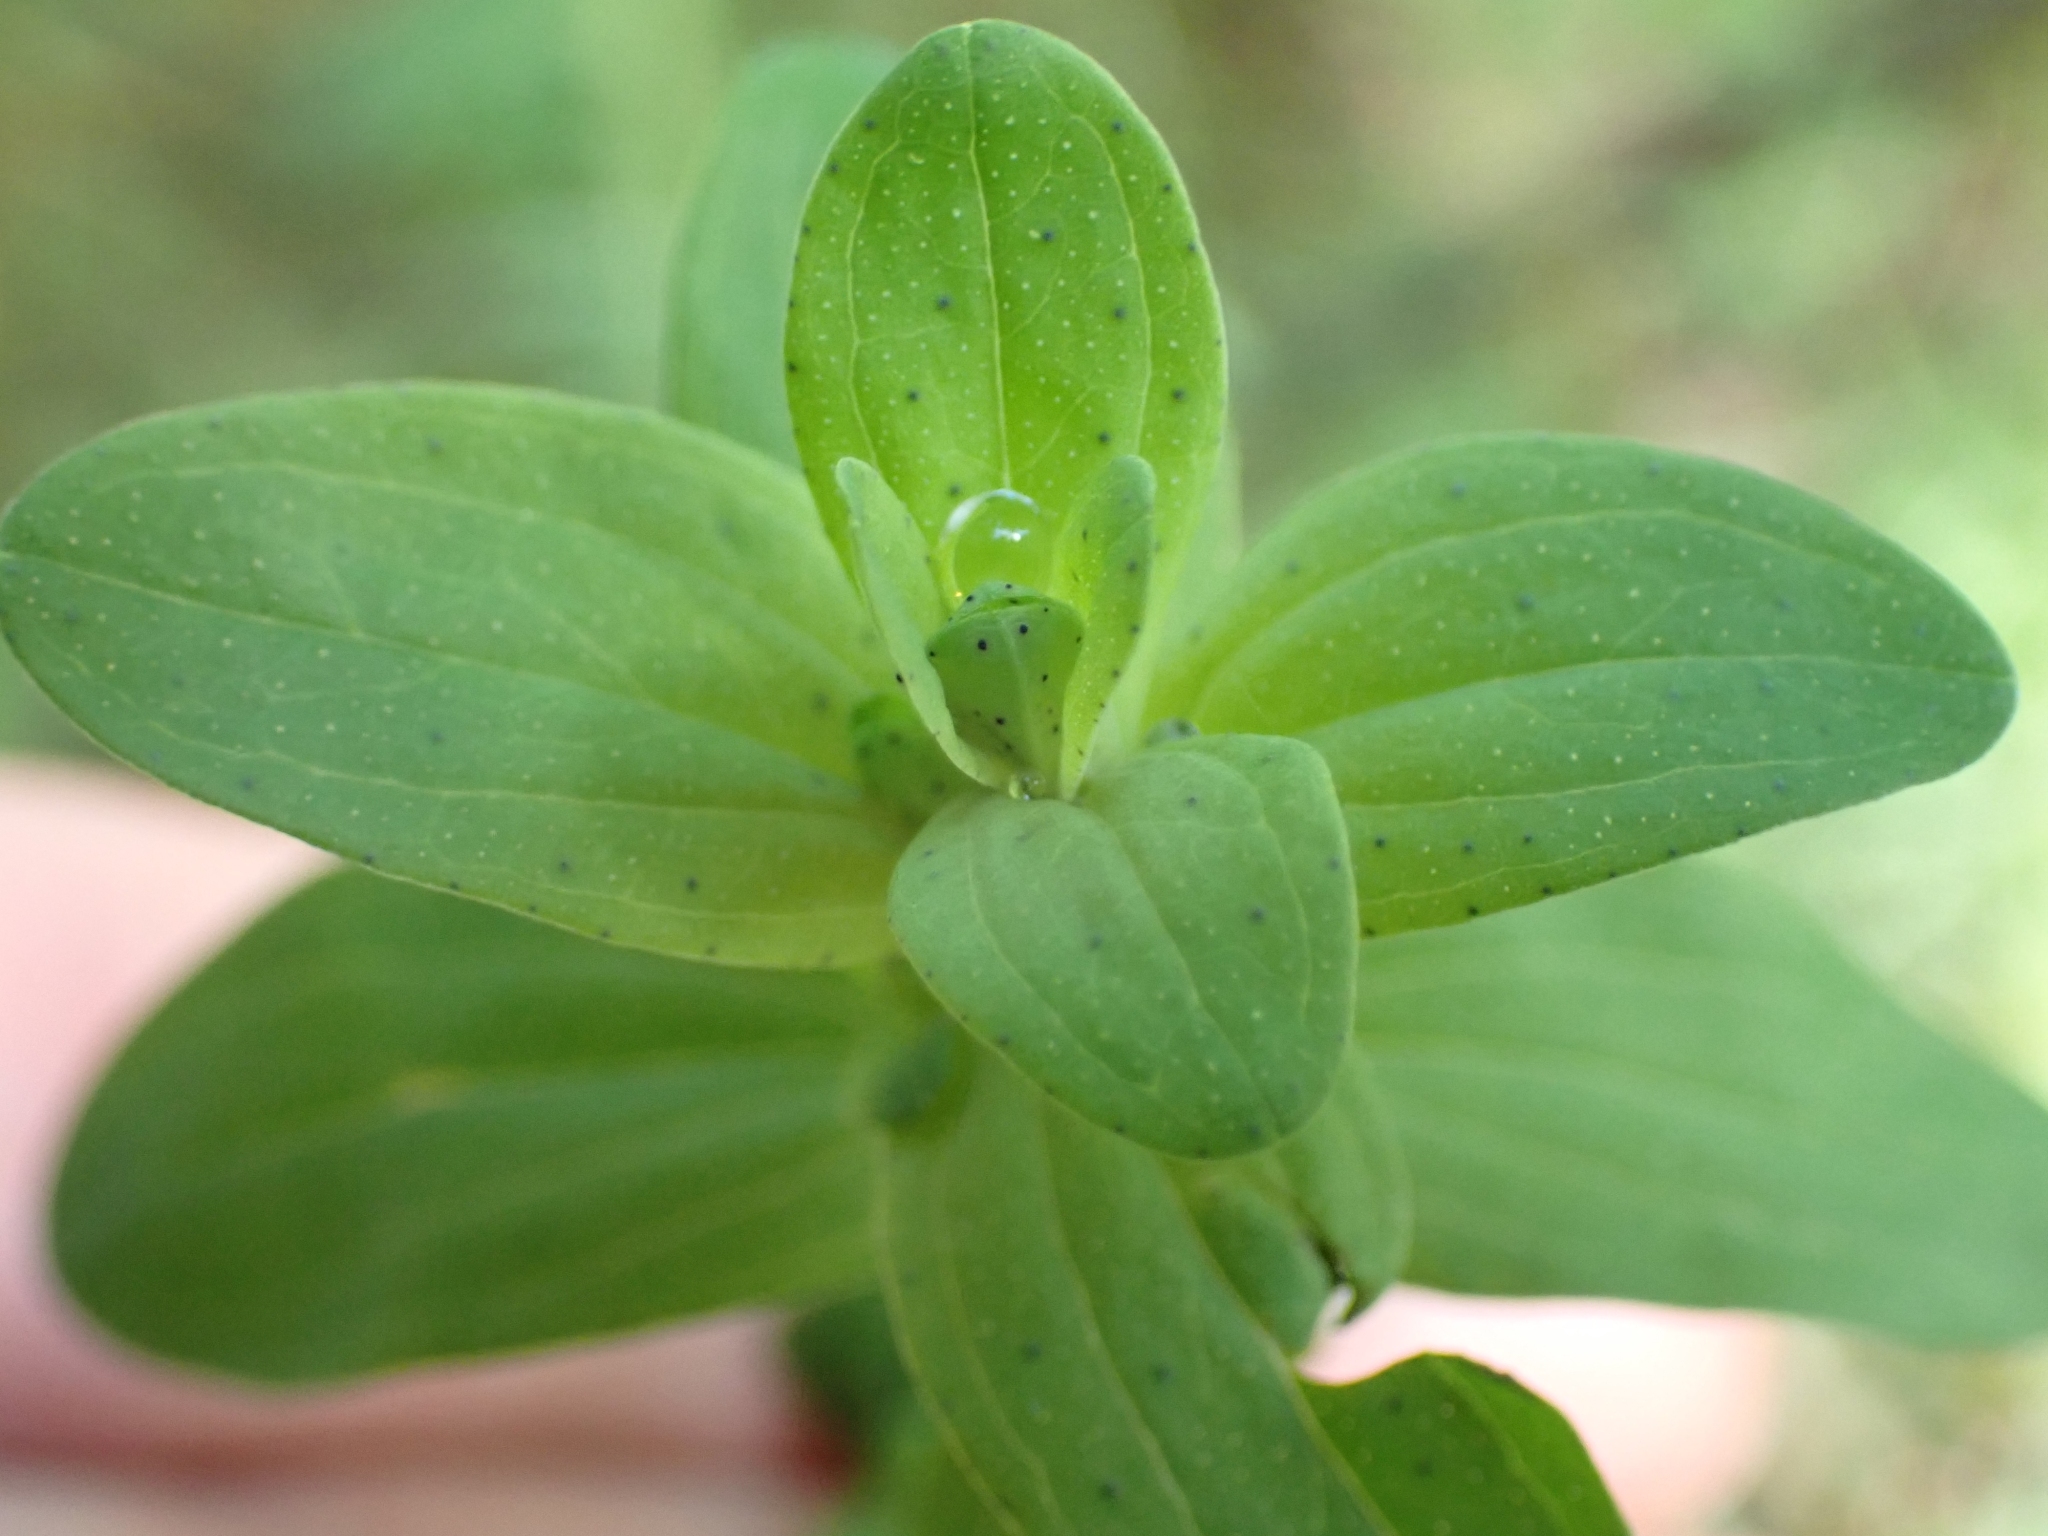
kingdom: Plantae
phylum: Tracheophyta
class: Magnoliopsida
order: Malpighiales
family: Hypericaceae
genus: Hypericum
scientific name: Hypericum perforatum
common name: Common st. johnswort
